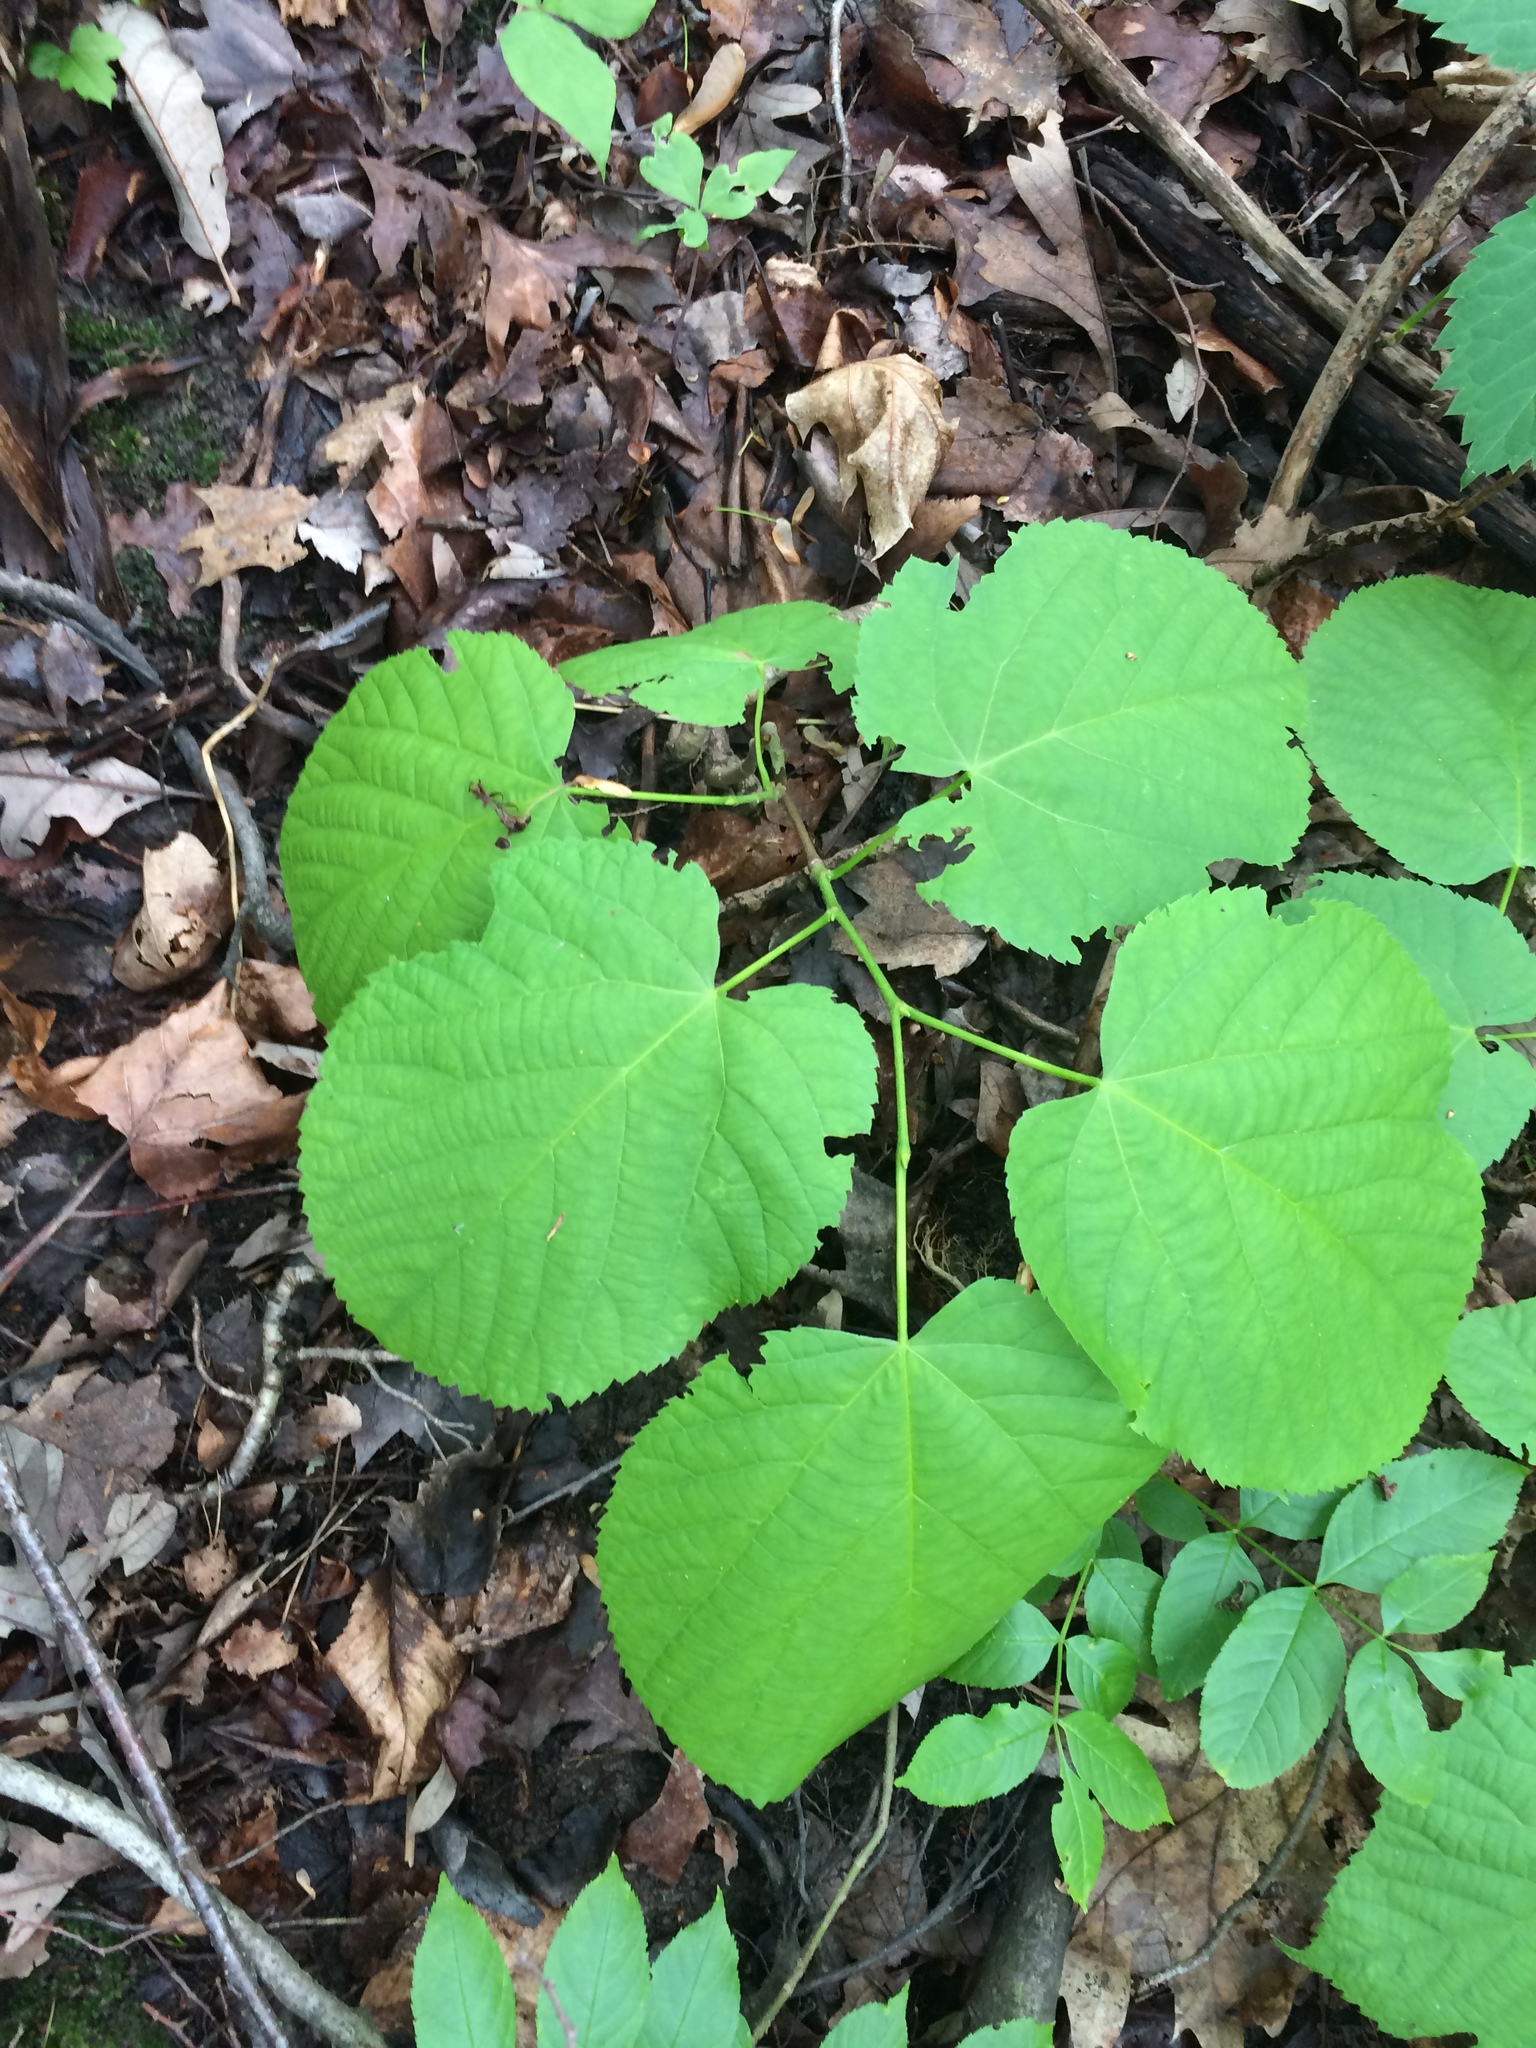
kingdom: Plantae
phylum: Tracheophyta
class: Magnoliopsida
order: Malvales
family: Malvaceae
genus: Tilia
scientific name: Tilia americana
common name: Basswood
